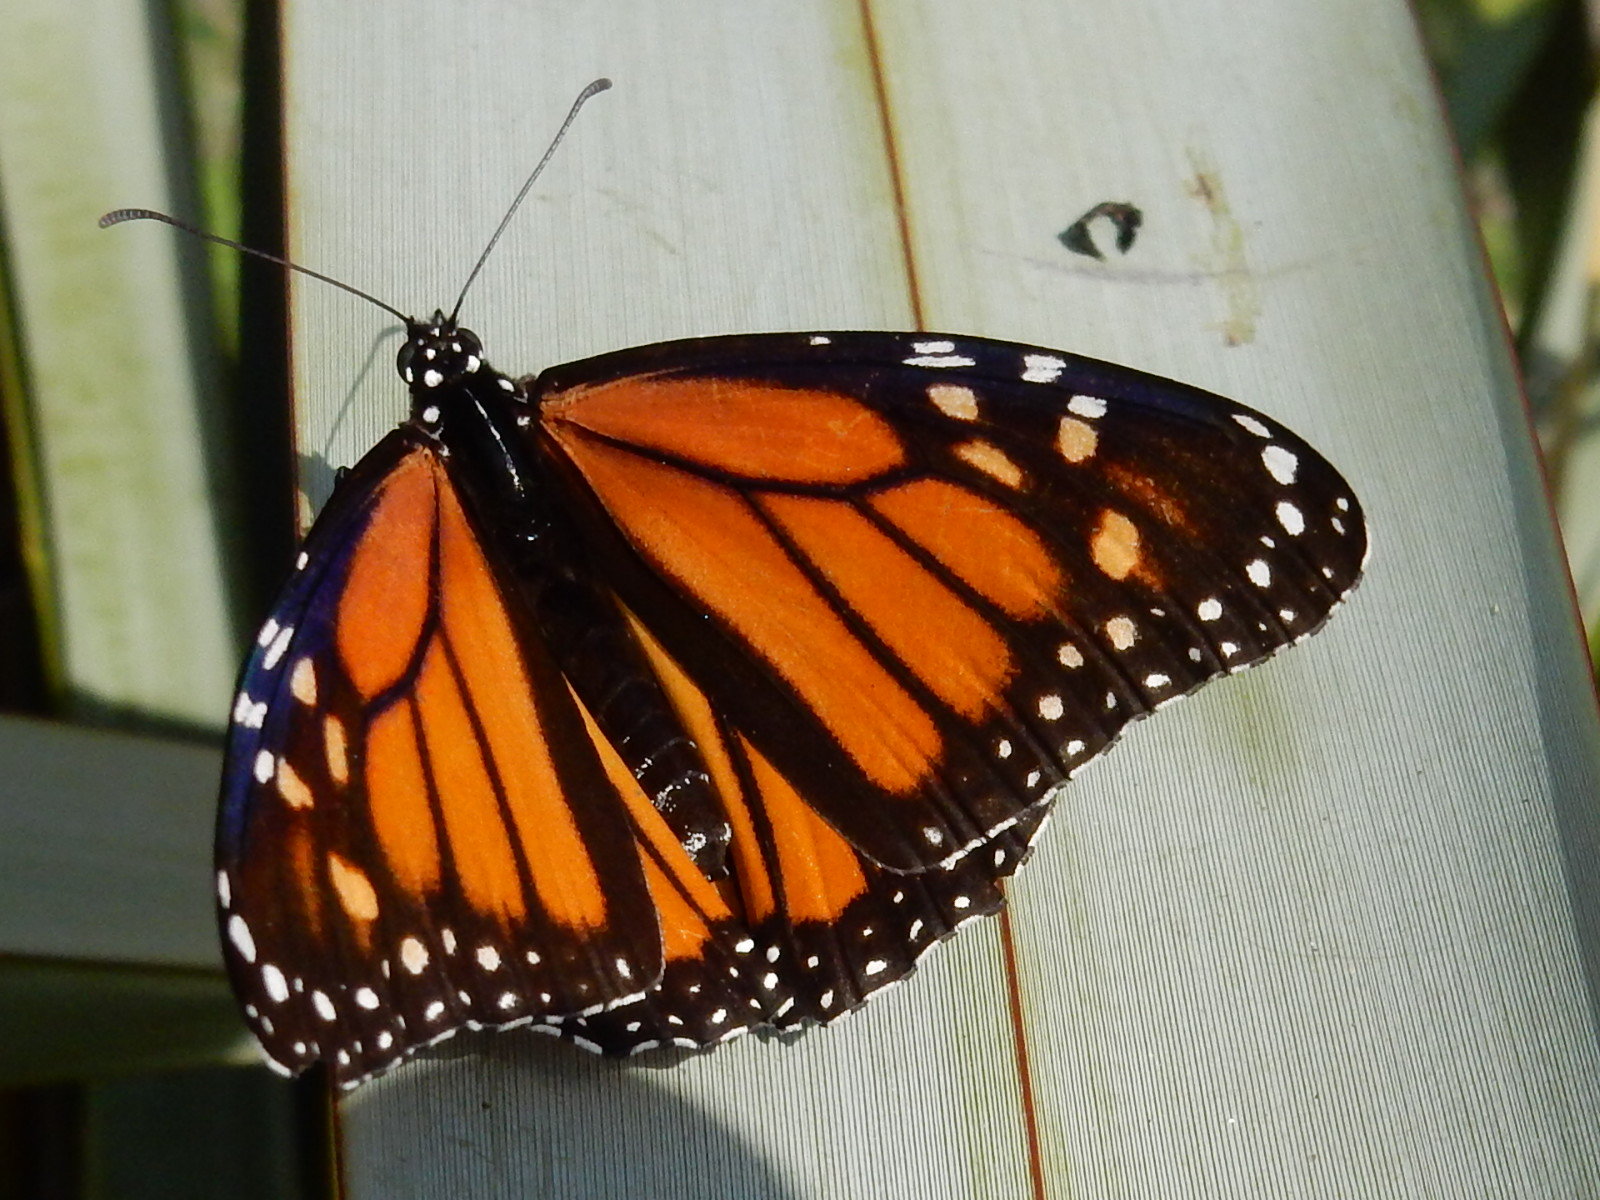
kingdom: Animalia
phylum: Arthropoda
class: Insecta
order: Lepidoptera
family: Nymphalidae
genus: Danaus
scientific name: Danaus plexippus
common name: Monarch
